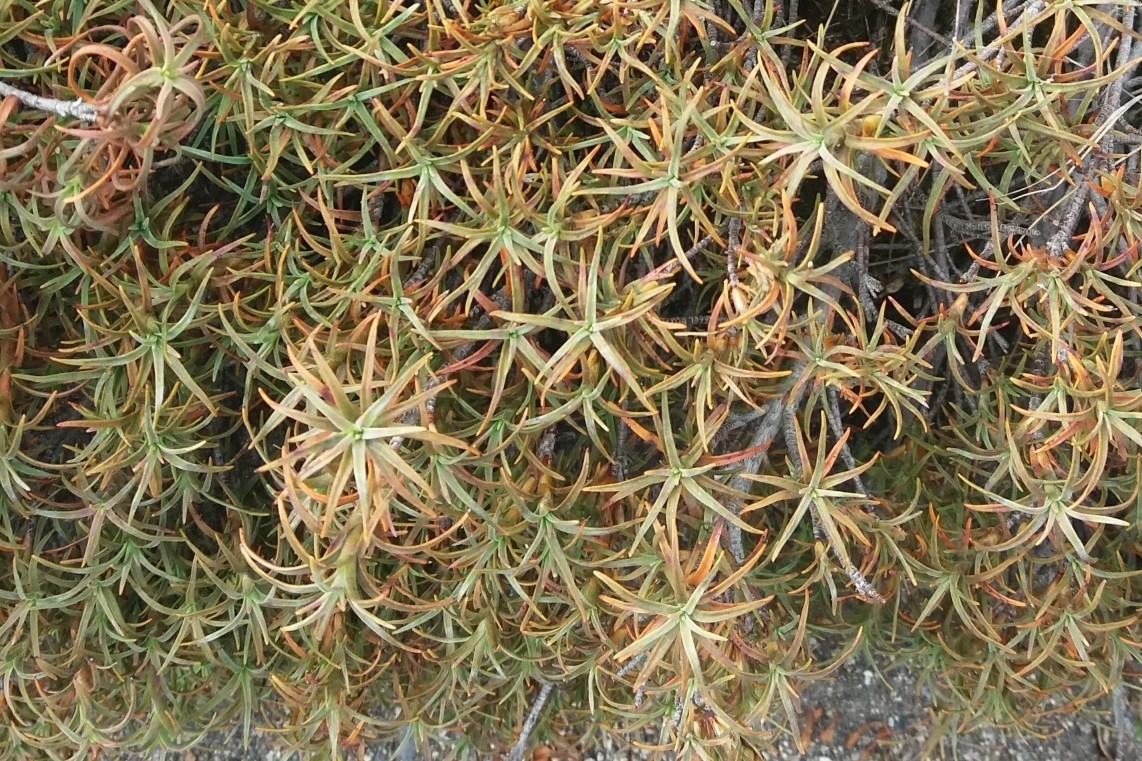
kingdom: Plantae
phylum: Tracheophyta
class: Magnoliopsida
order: Ericales
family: Ericaceae
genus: Dracophyllum
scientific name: Dracophyllum recurvum
